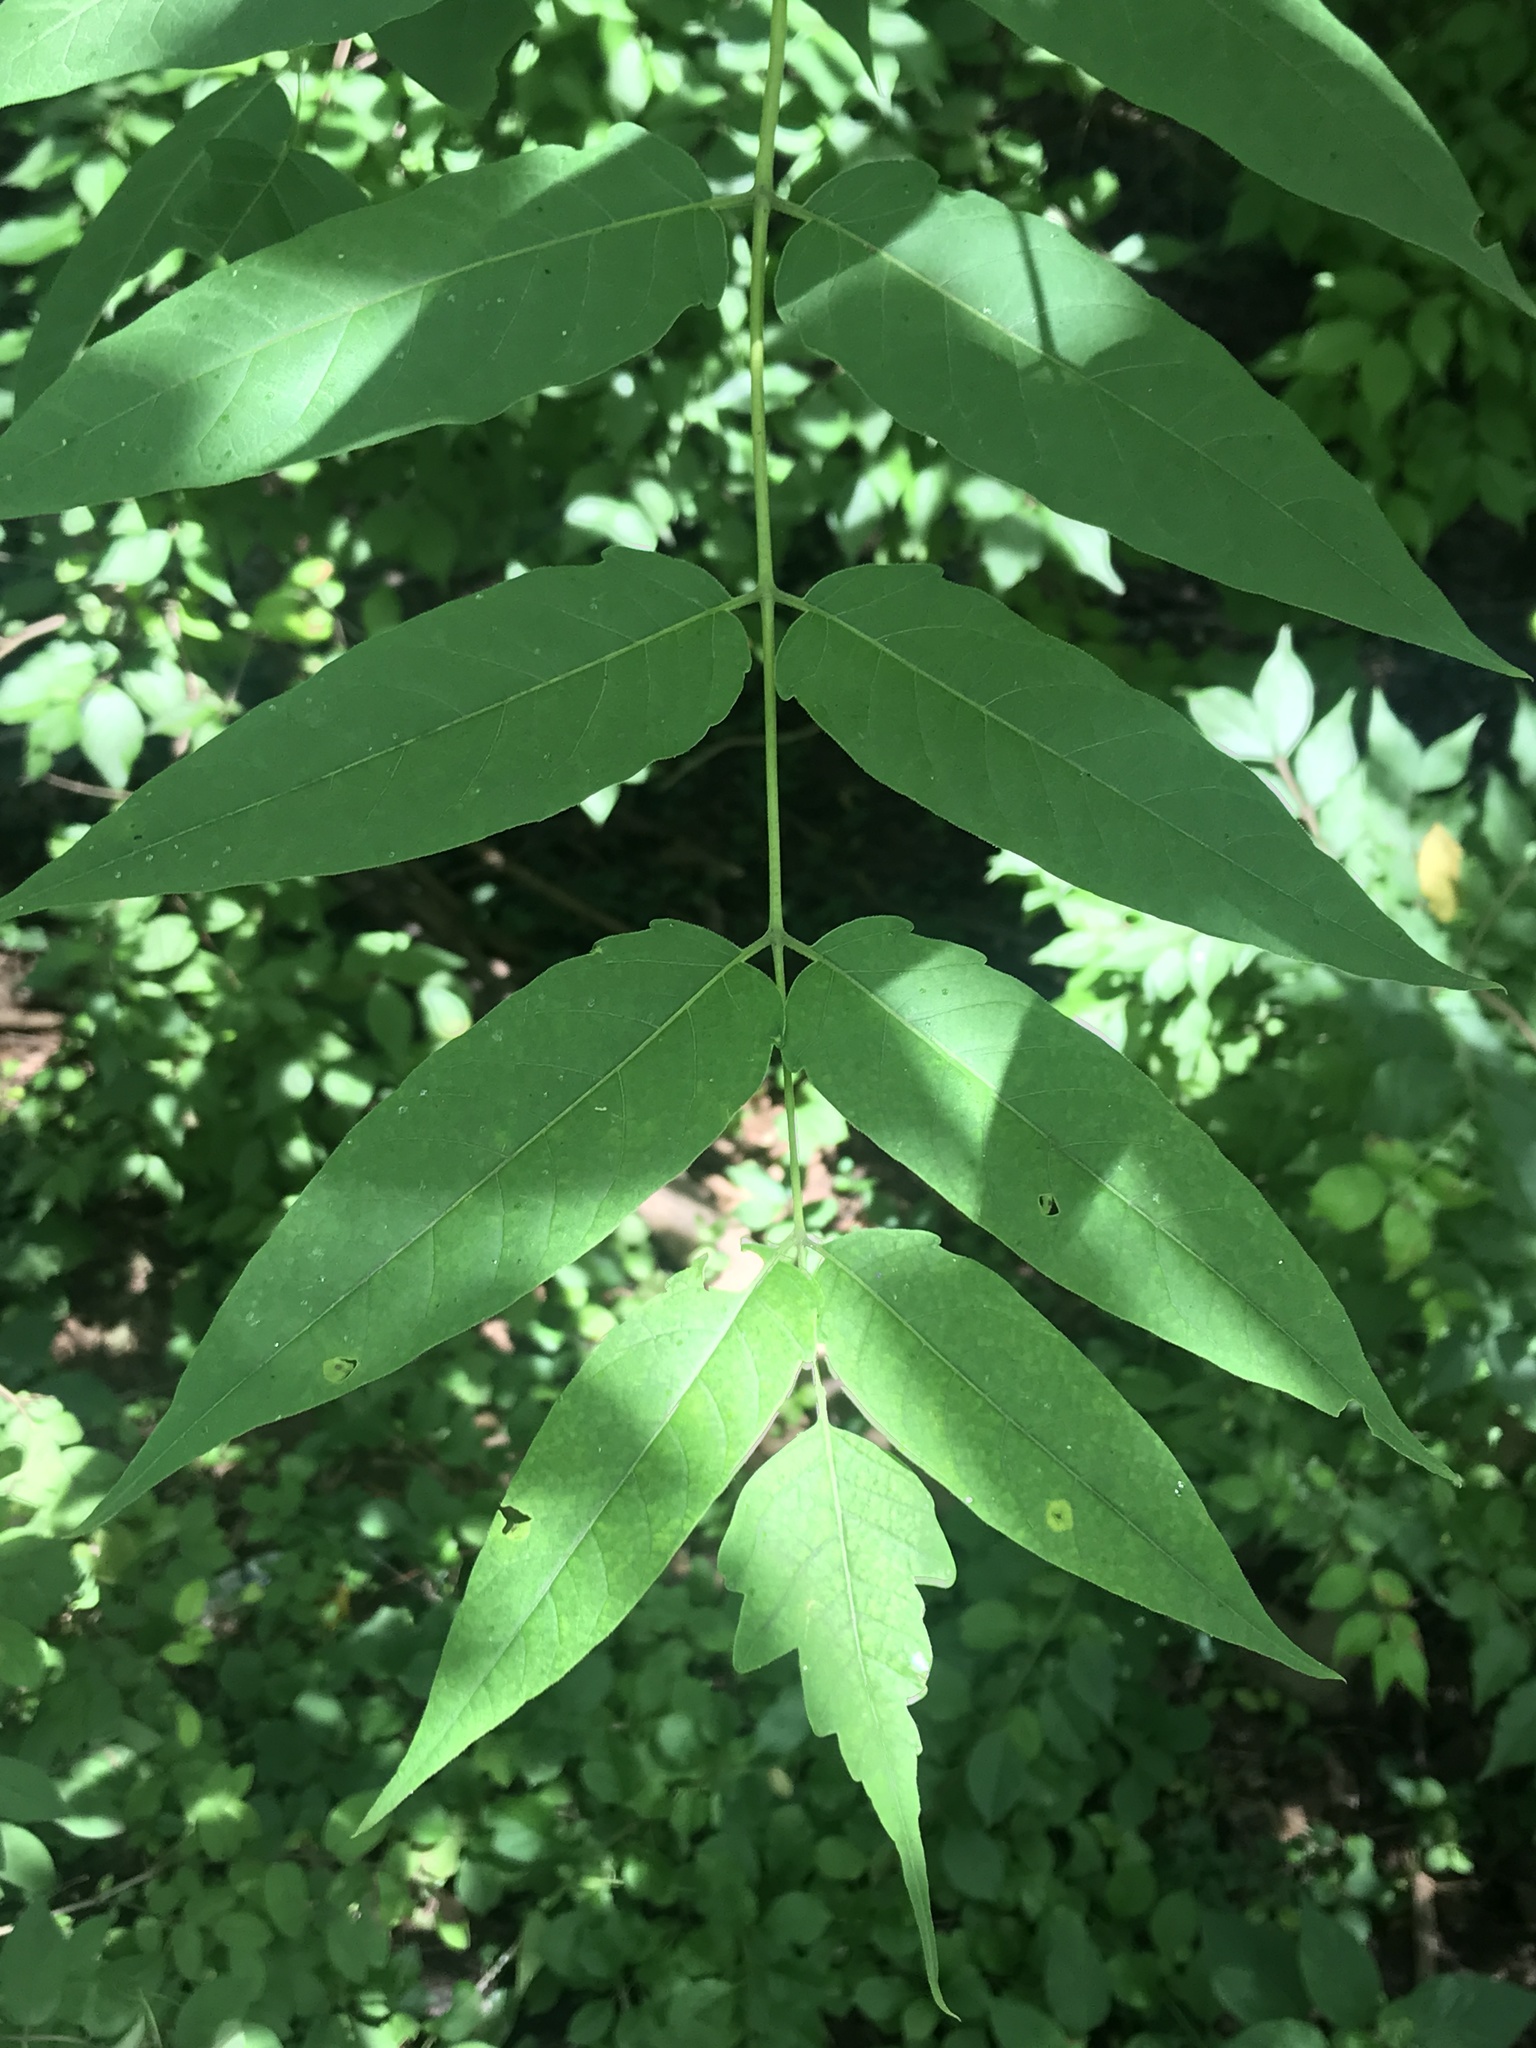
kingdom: Plantae
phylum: Tracheophyta
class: Magnoliopsida
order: Sapindales
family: Simaroubaceae
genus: Ailanthus
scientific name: Ailanthus altissima
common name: Tree-of-heaven
